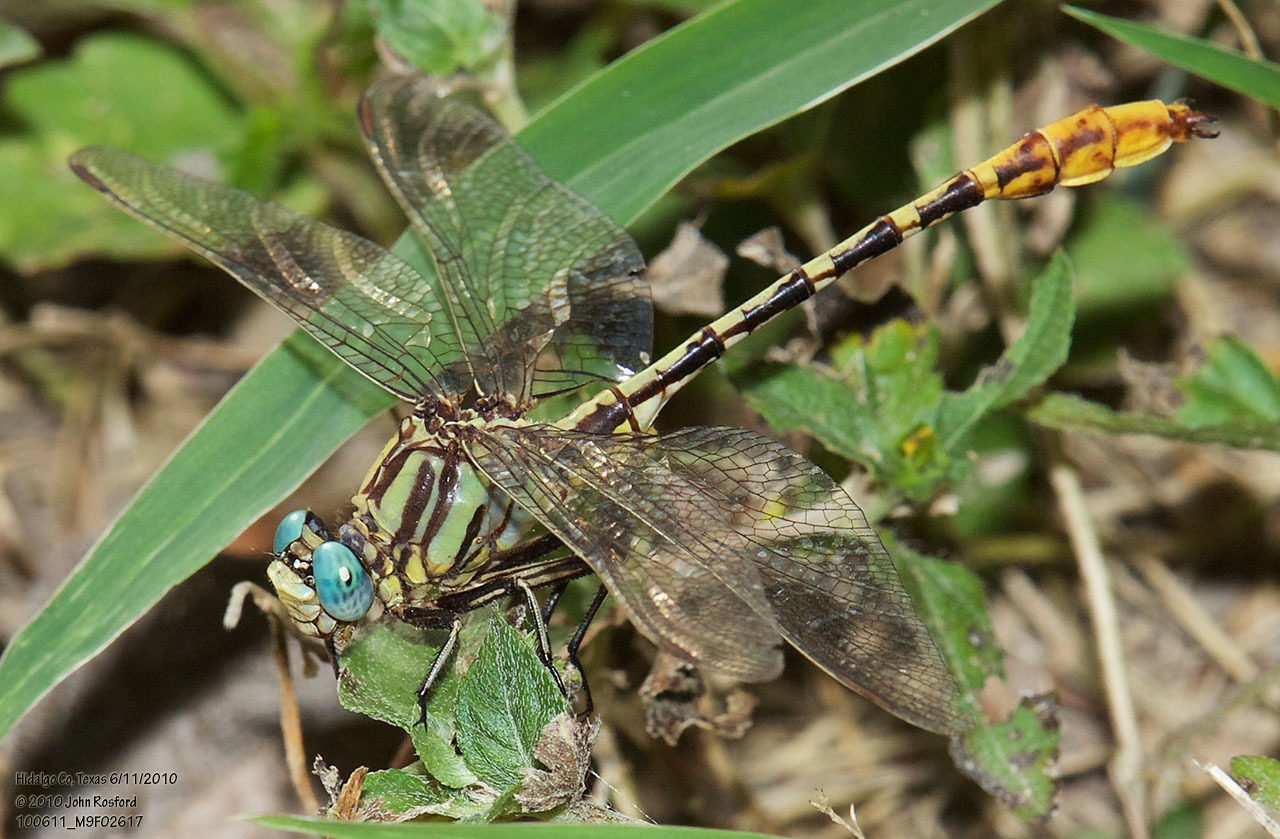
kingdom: Animalia
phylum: Arthropoda
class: Insecta
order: Odonata
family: Gomphidae
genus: Phanogomphus
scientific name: Phanogomphus militaris
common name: Sulphur-tipped clubtail
